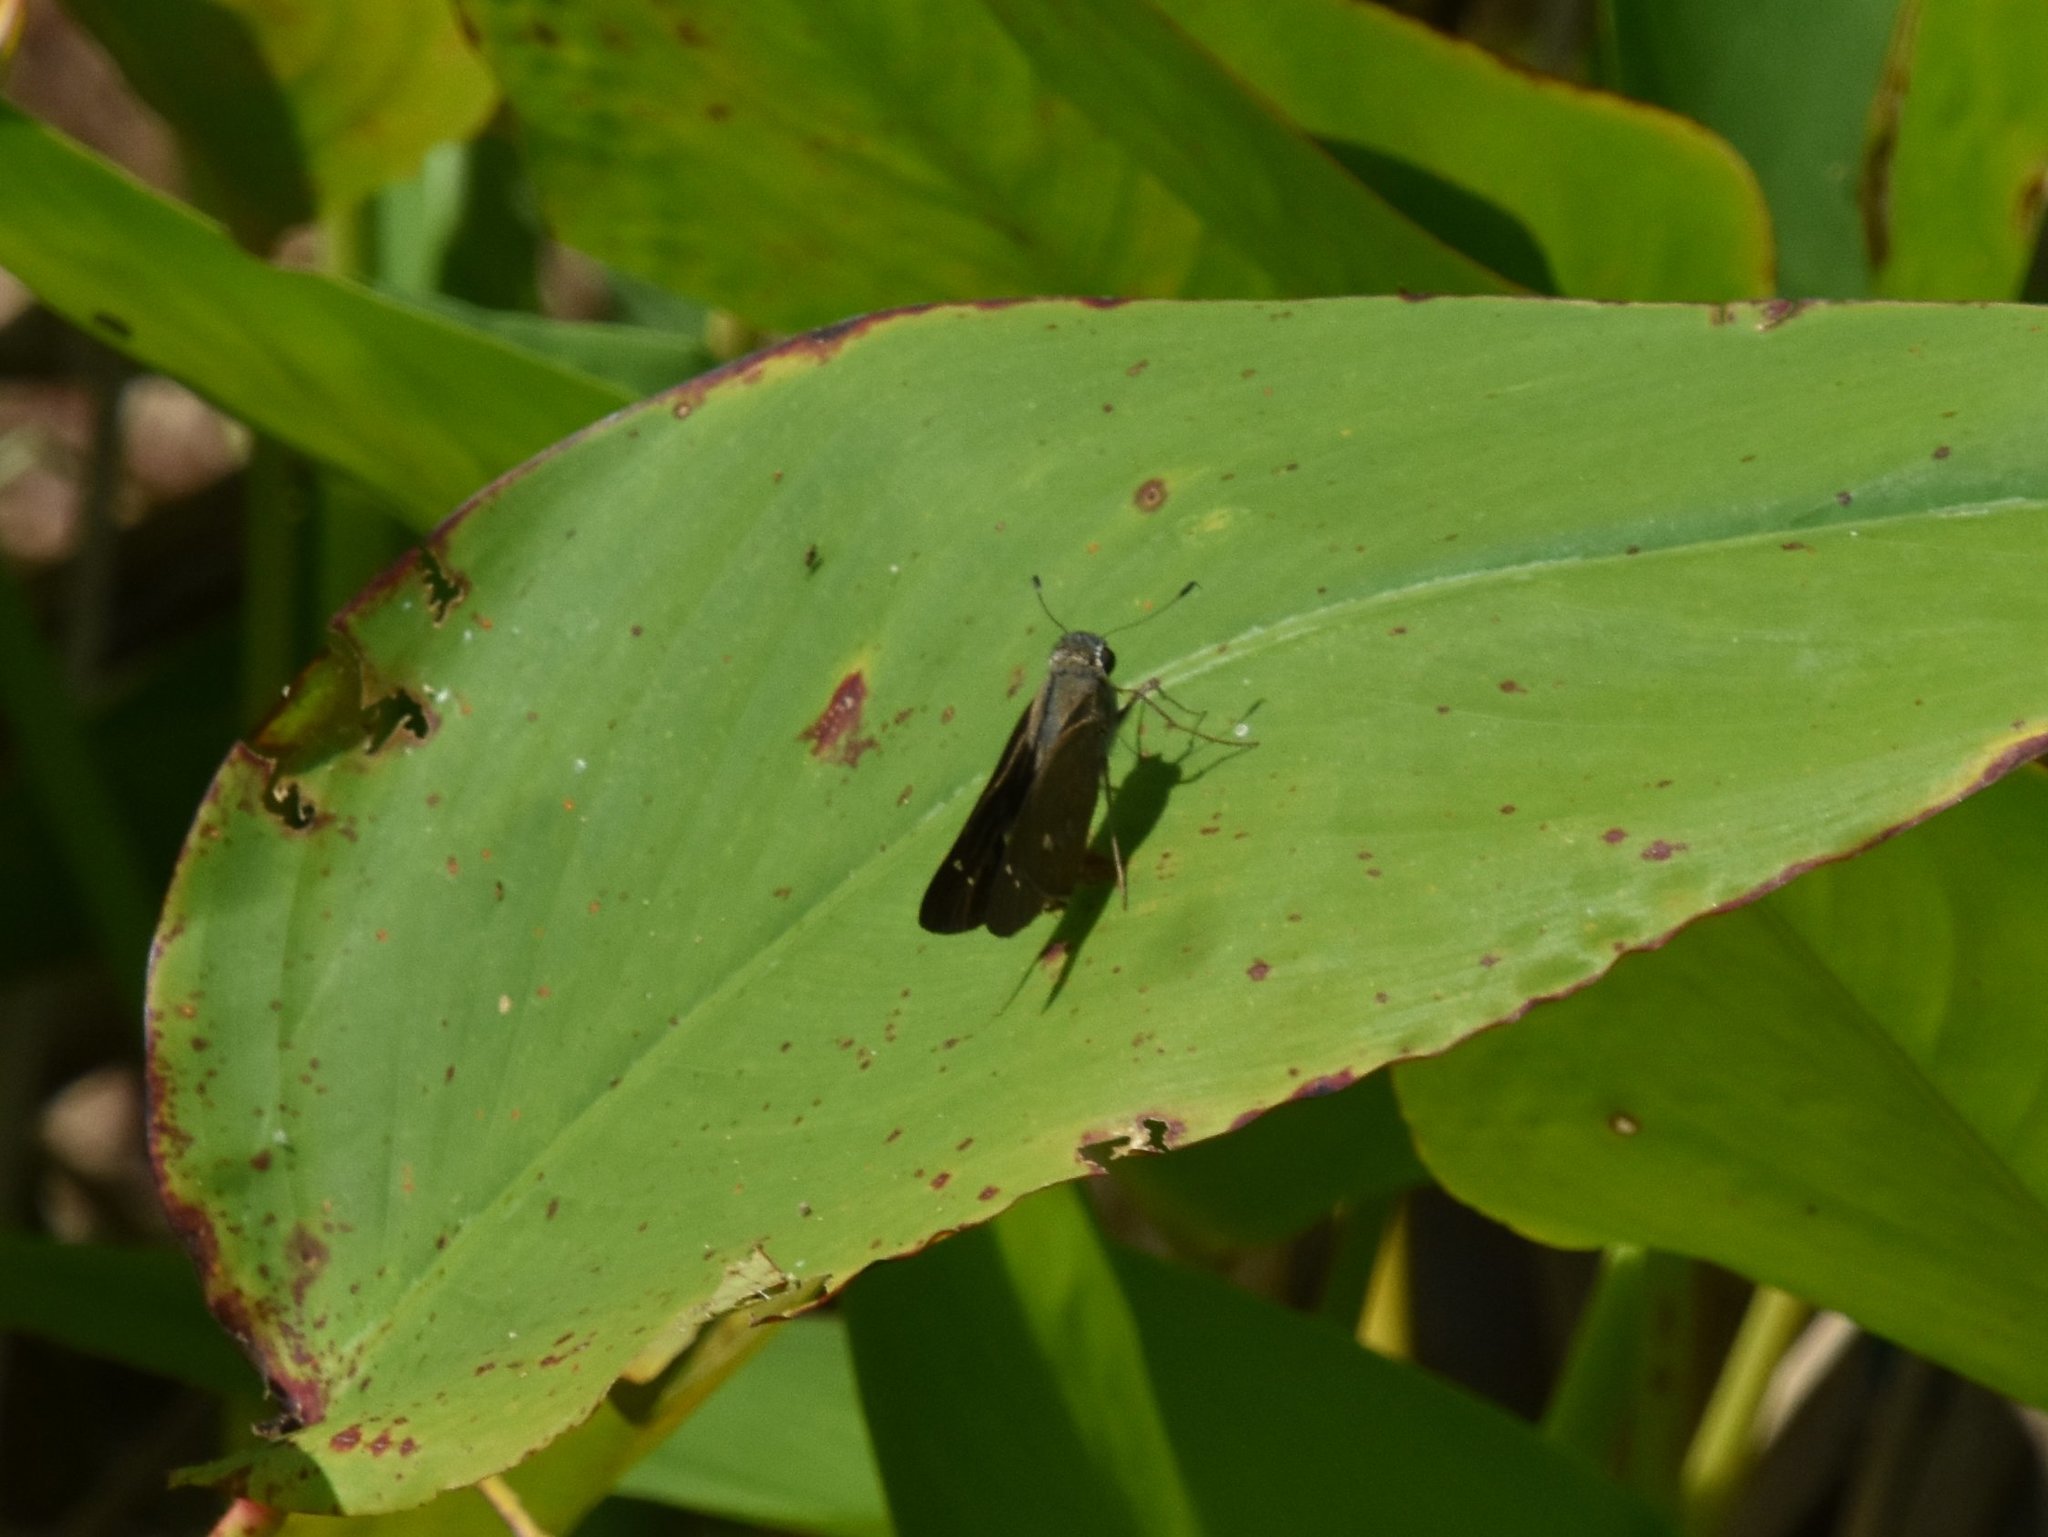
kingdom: Animalia
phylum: Arthropoda
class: Insecta
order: Lepidoptera
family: Hesperiidae
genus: Calpodes
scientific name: Calpodes ethlius
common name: Brazilian skipper
